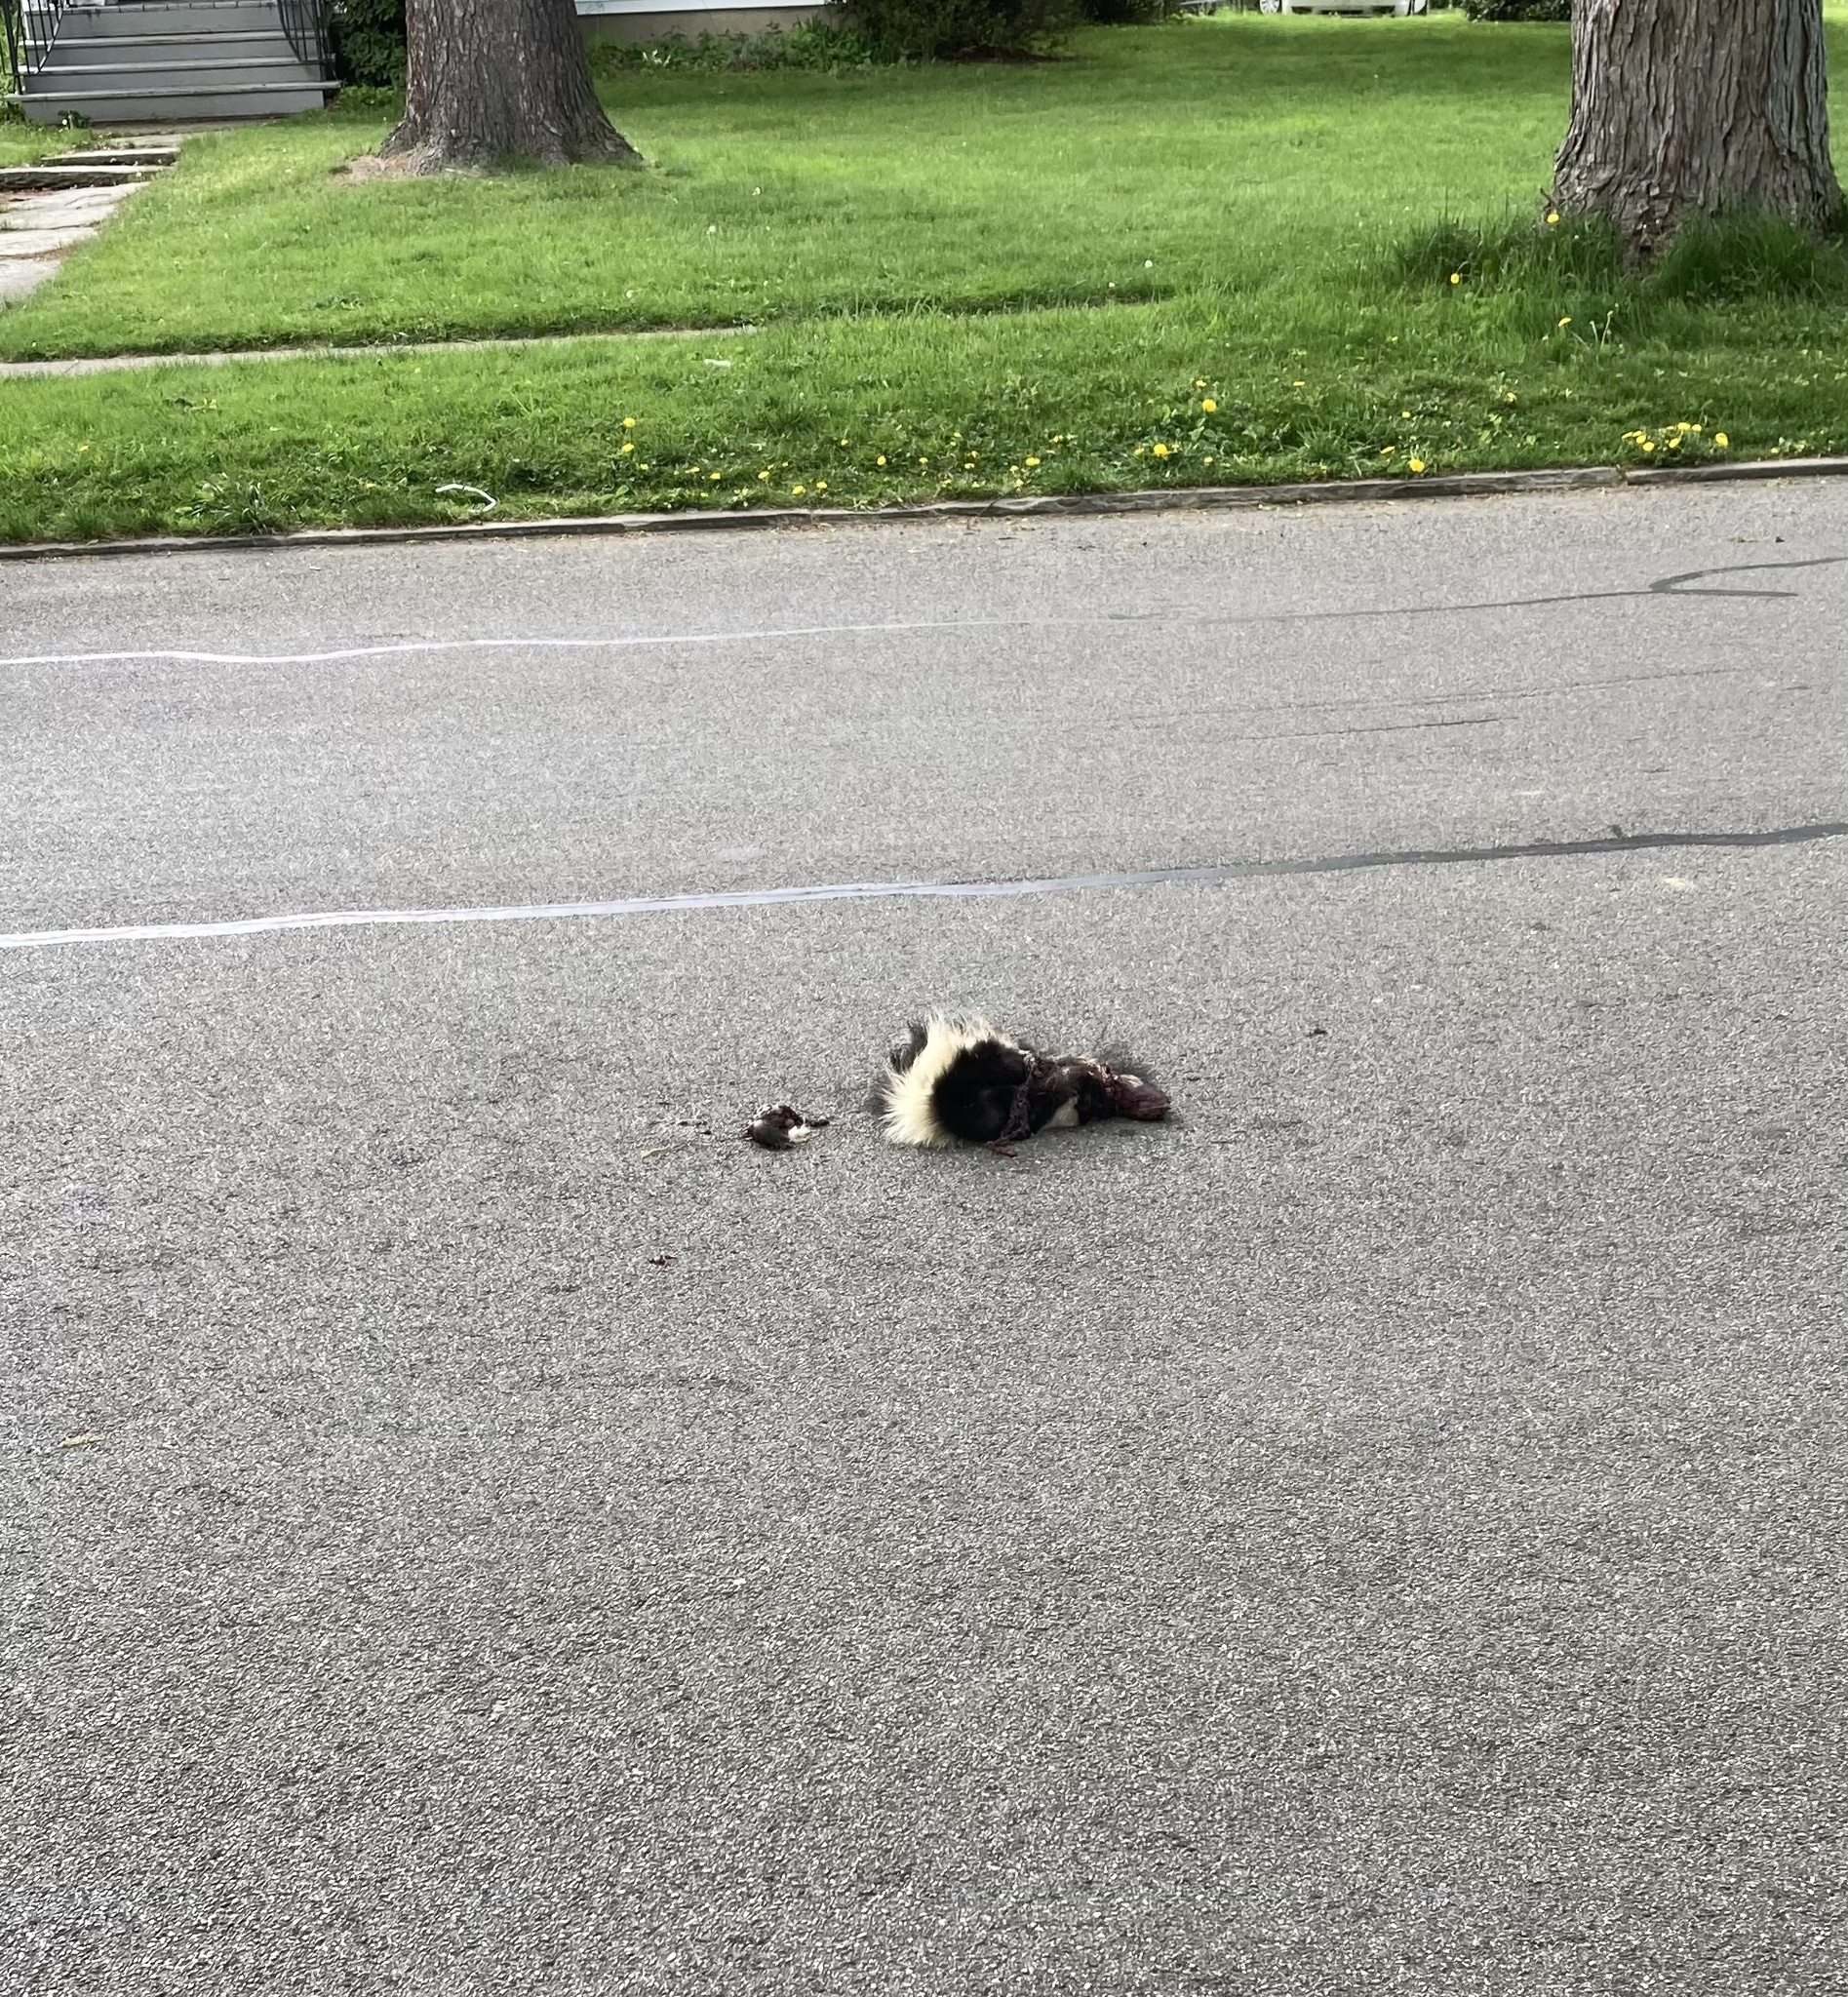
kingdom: Animalia
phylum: Chordata
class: Mammalia
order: Carnivora
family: Mephitidae
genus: Mephitis
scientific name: Mephitis mephitis
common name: Striped skunk
